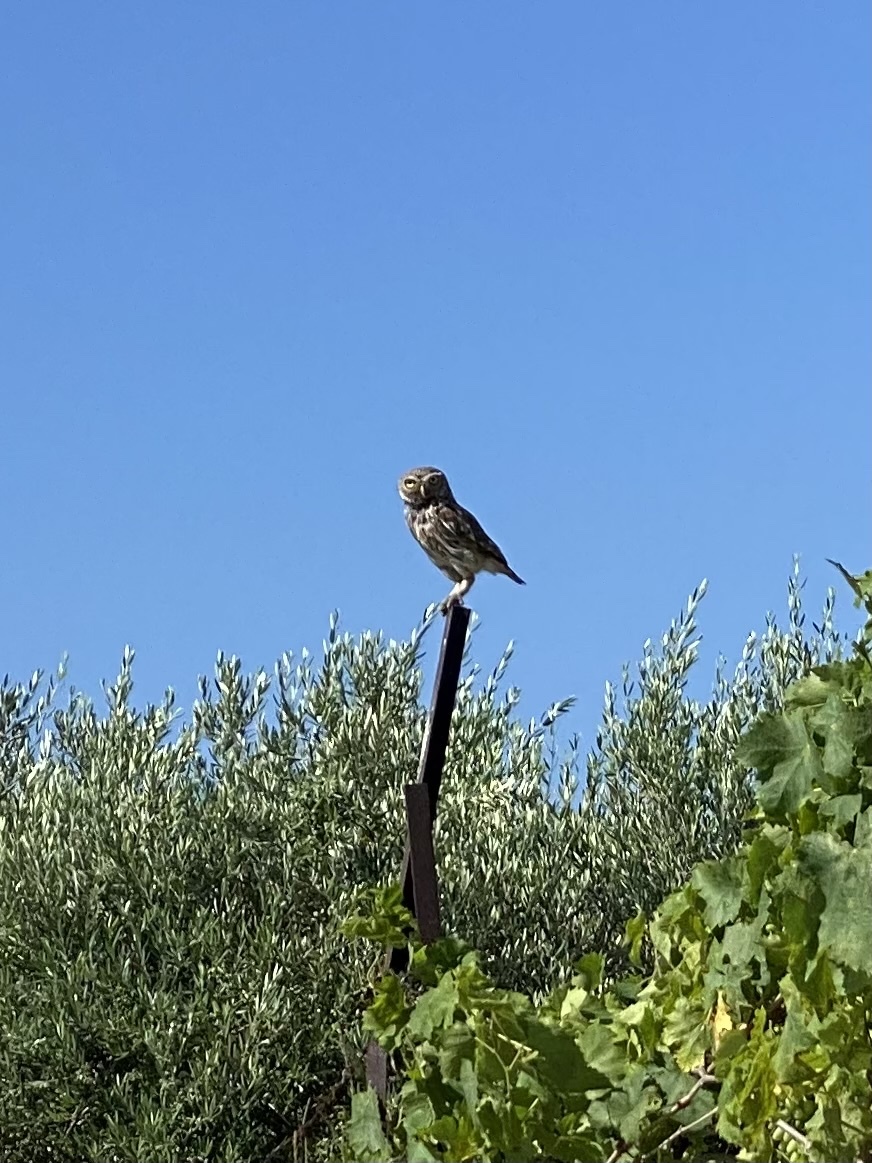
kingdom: Animalia
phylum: Chordata
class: Aves
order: Strigiformes
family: Strigidae
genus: Athene
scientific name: Athene noctua
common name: Little owl
